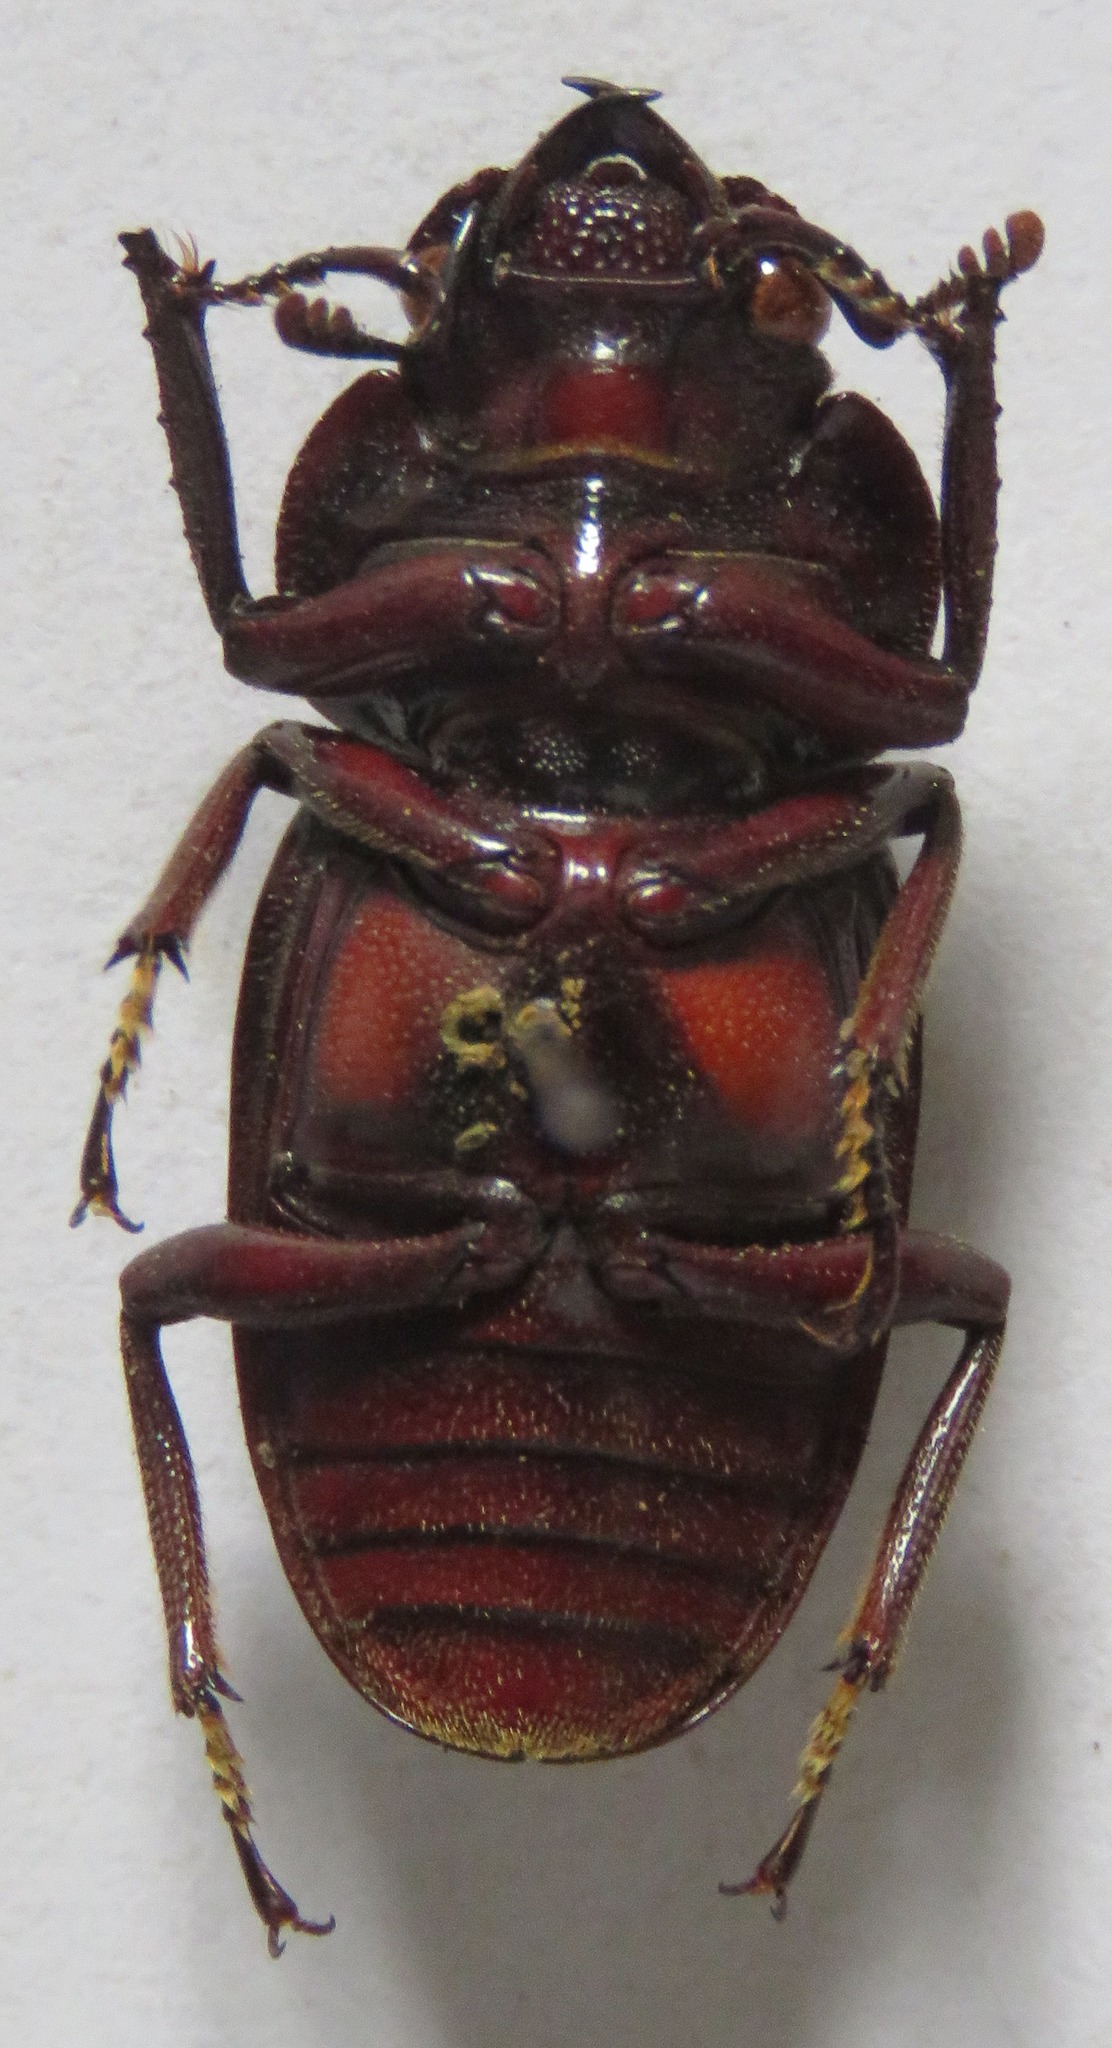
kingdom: Animalia
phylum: Arthropoda
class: Insecta
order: Coleoptera
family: Lucanidae
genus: Prosopocoilus
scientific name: Prosopocoilus kasaiensis
